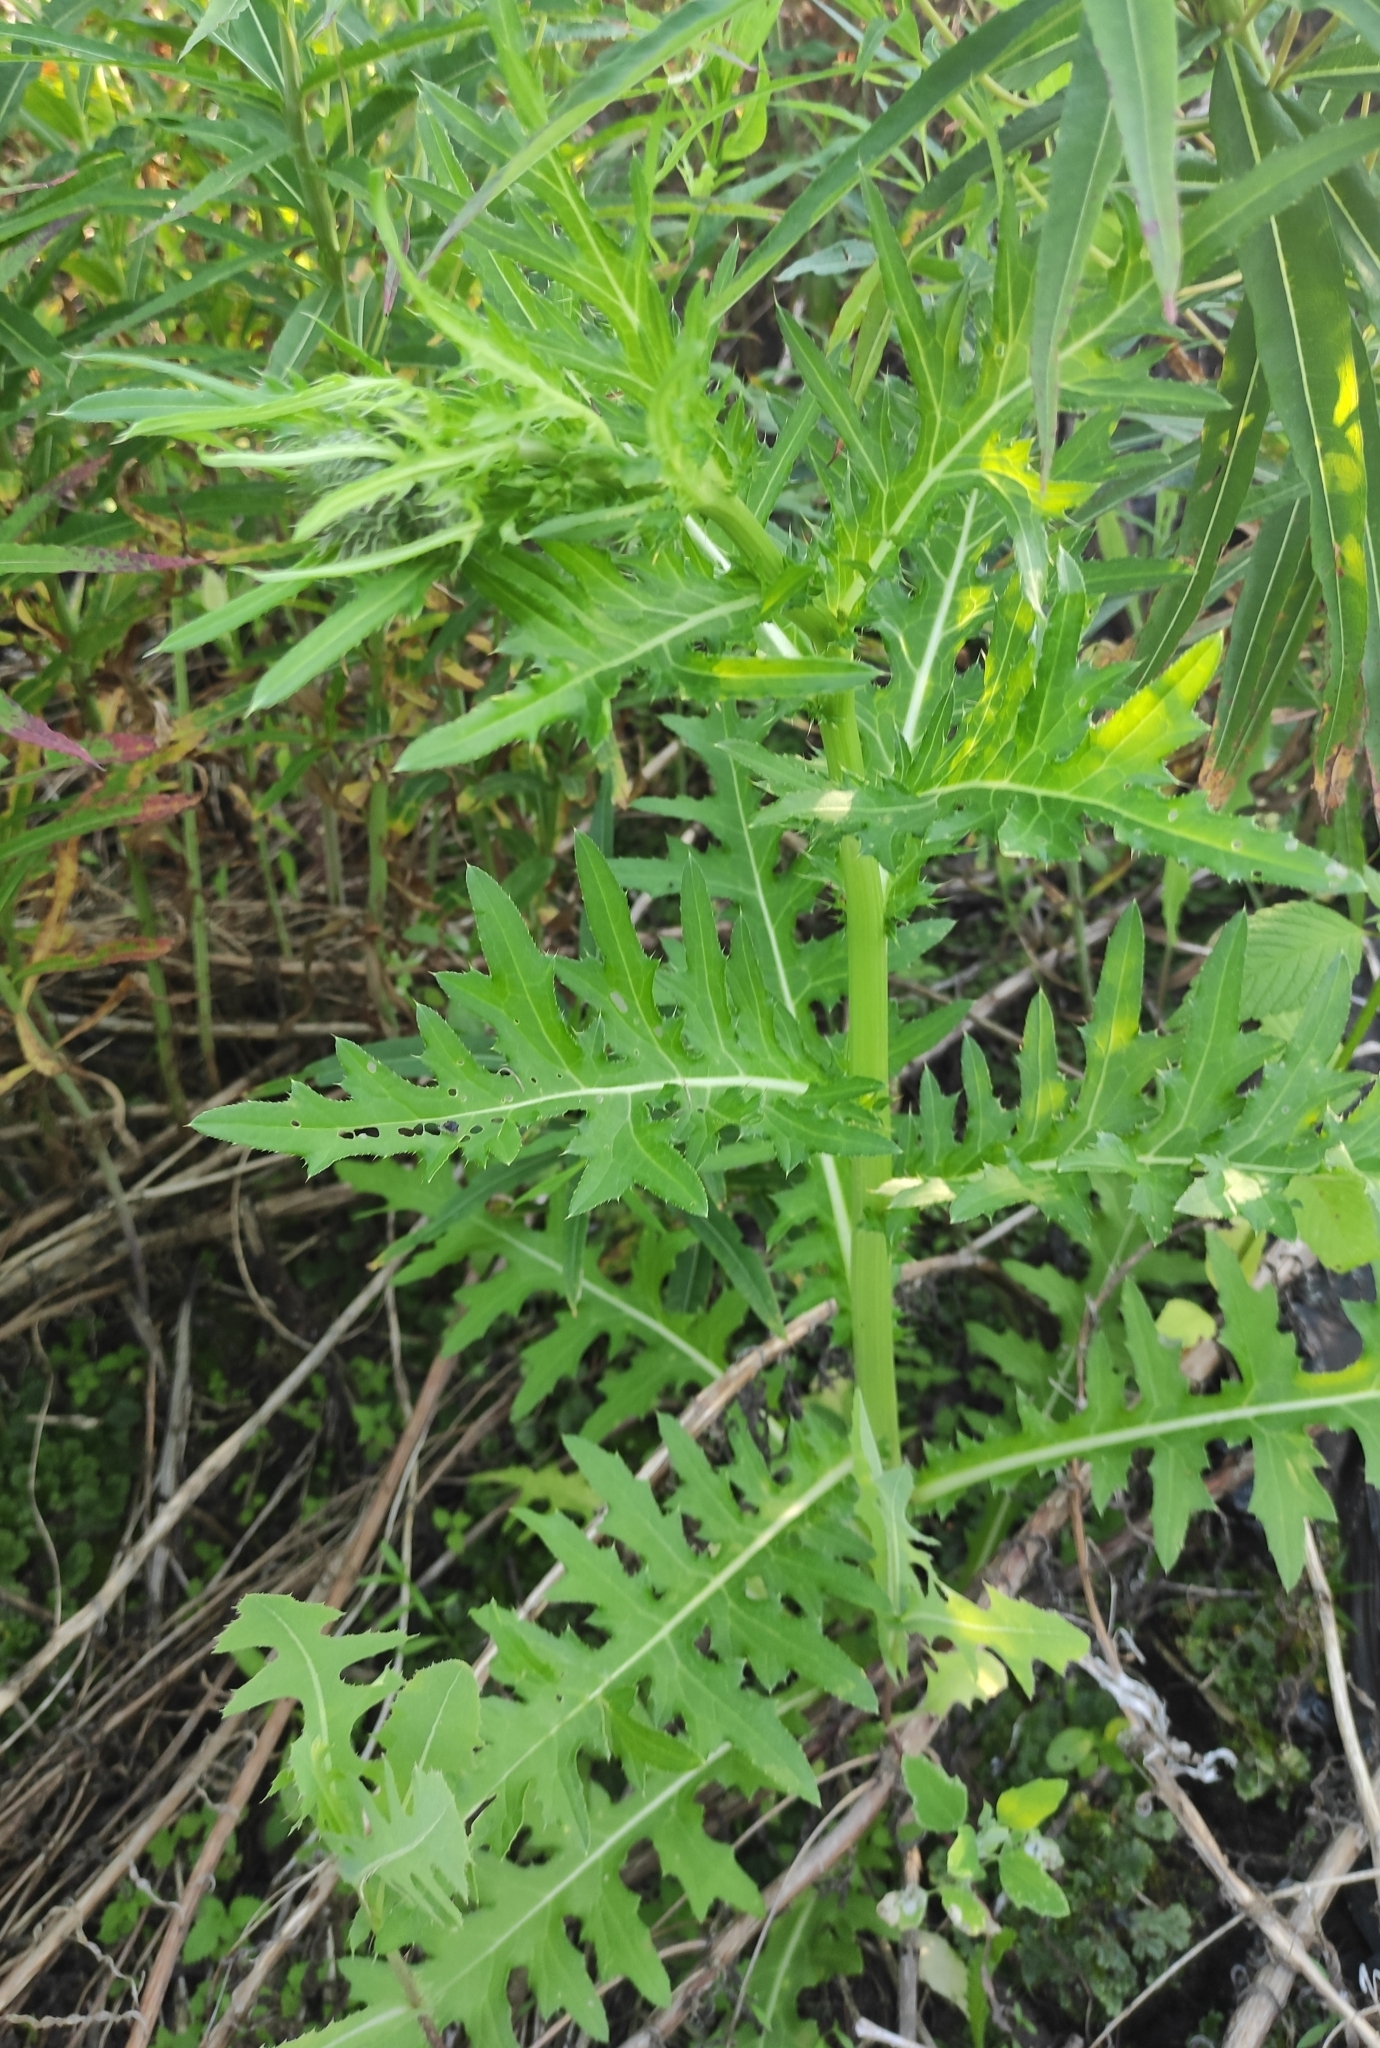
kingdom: Plantae
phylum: Tracheophyta
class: Magnoliopsida
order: Asterales
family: Asteraceae
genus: Cirsium
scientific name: Cirsium pendulum
